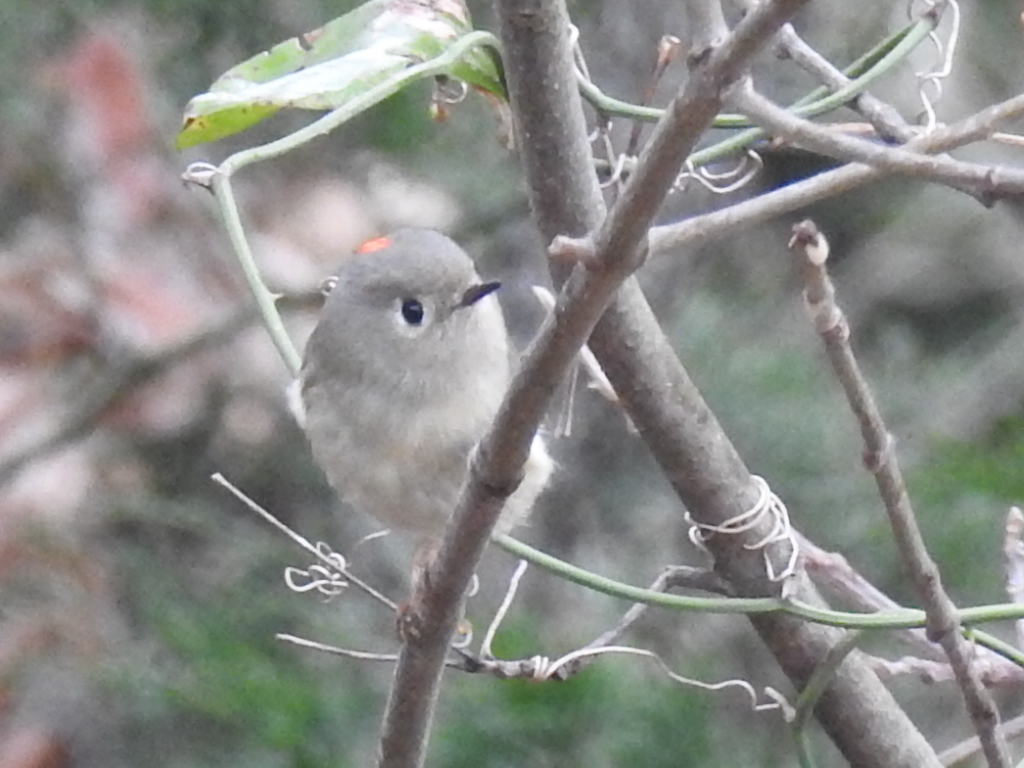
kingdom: Animalia
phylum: Chordata
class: Aves
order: Passeriformes
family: Regulidae
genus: Regulus
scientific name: Regulus calendula
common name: Ruby-crowned kinglet
